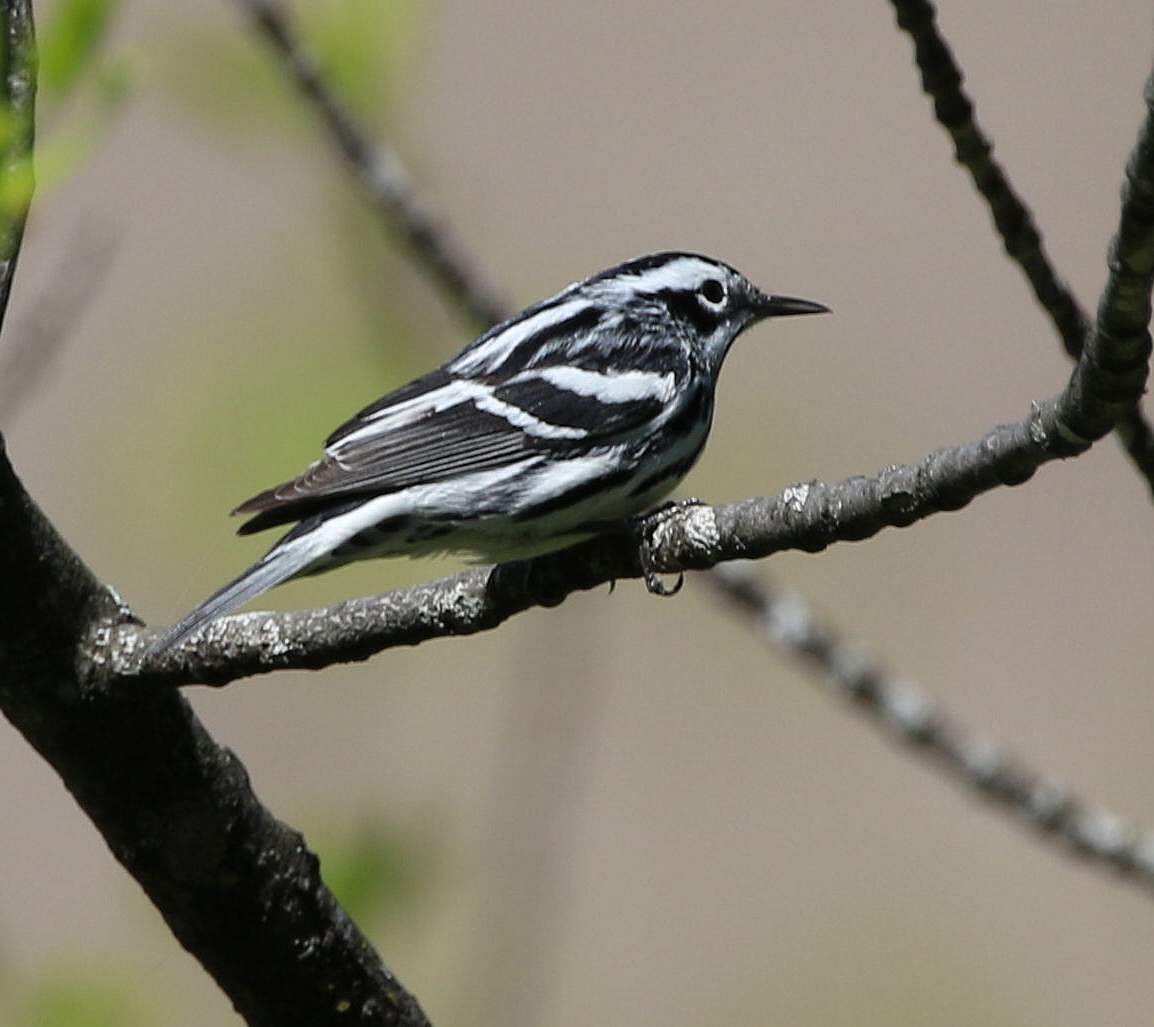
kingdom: Animalia
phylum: Chordata
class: Aves
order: Passeriformes
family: Parulidae
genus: Mniotilta
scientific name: Mniotilta varia
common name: Black-and-white warbler
